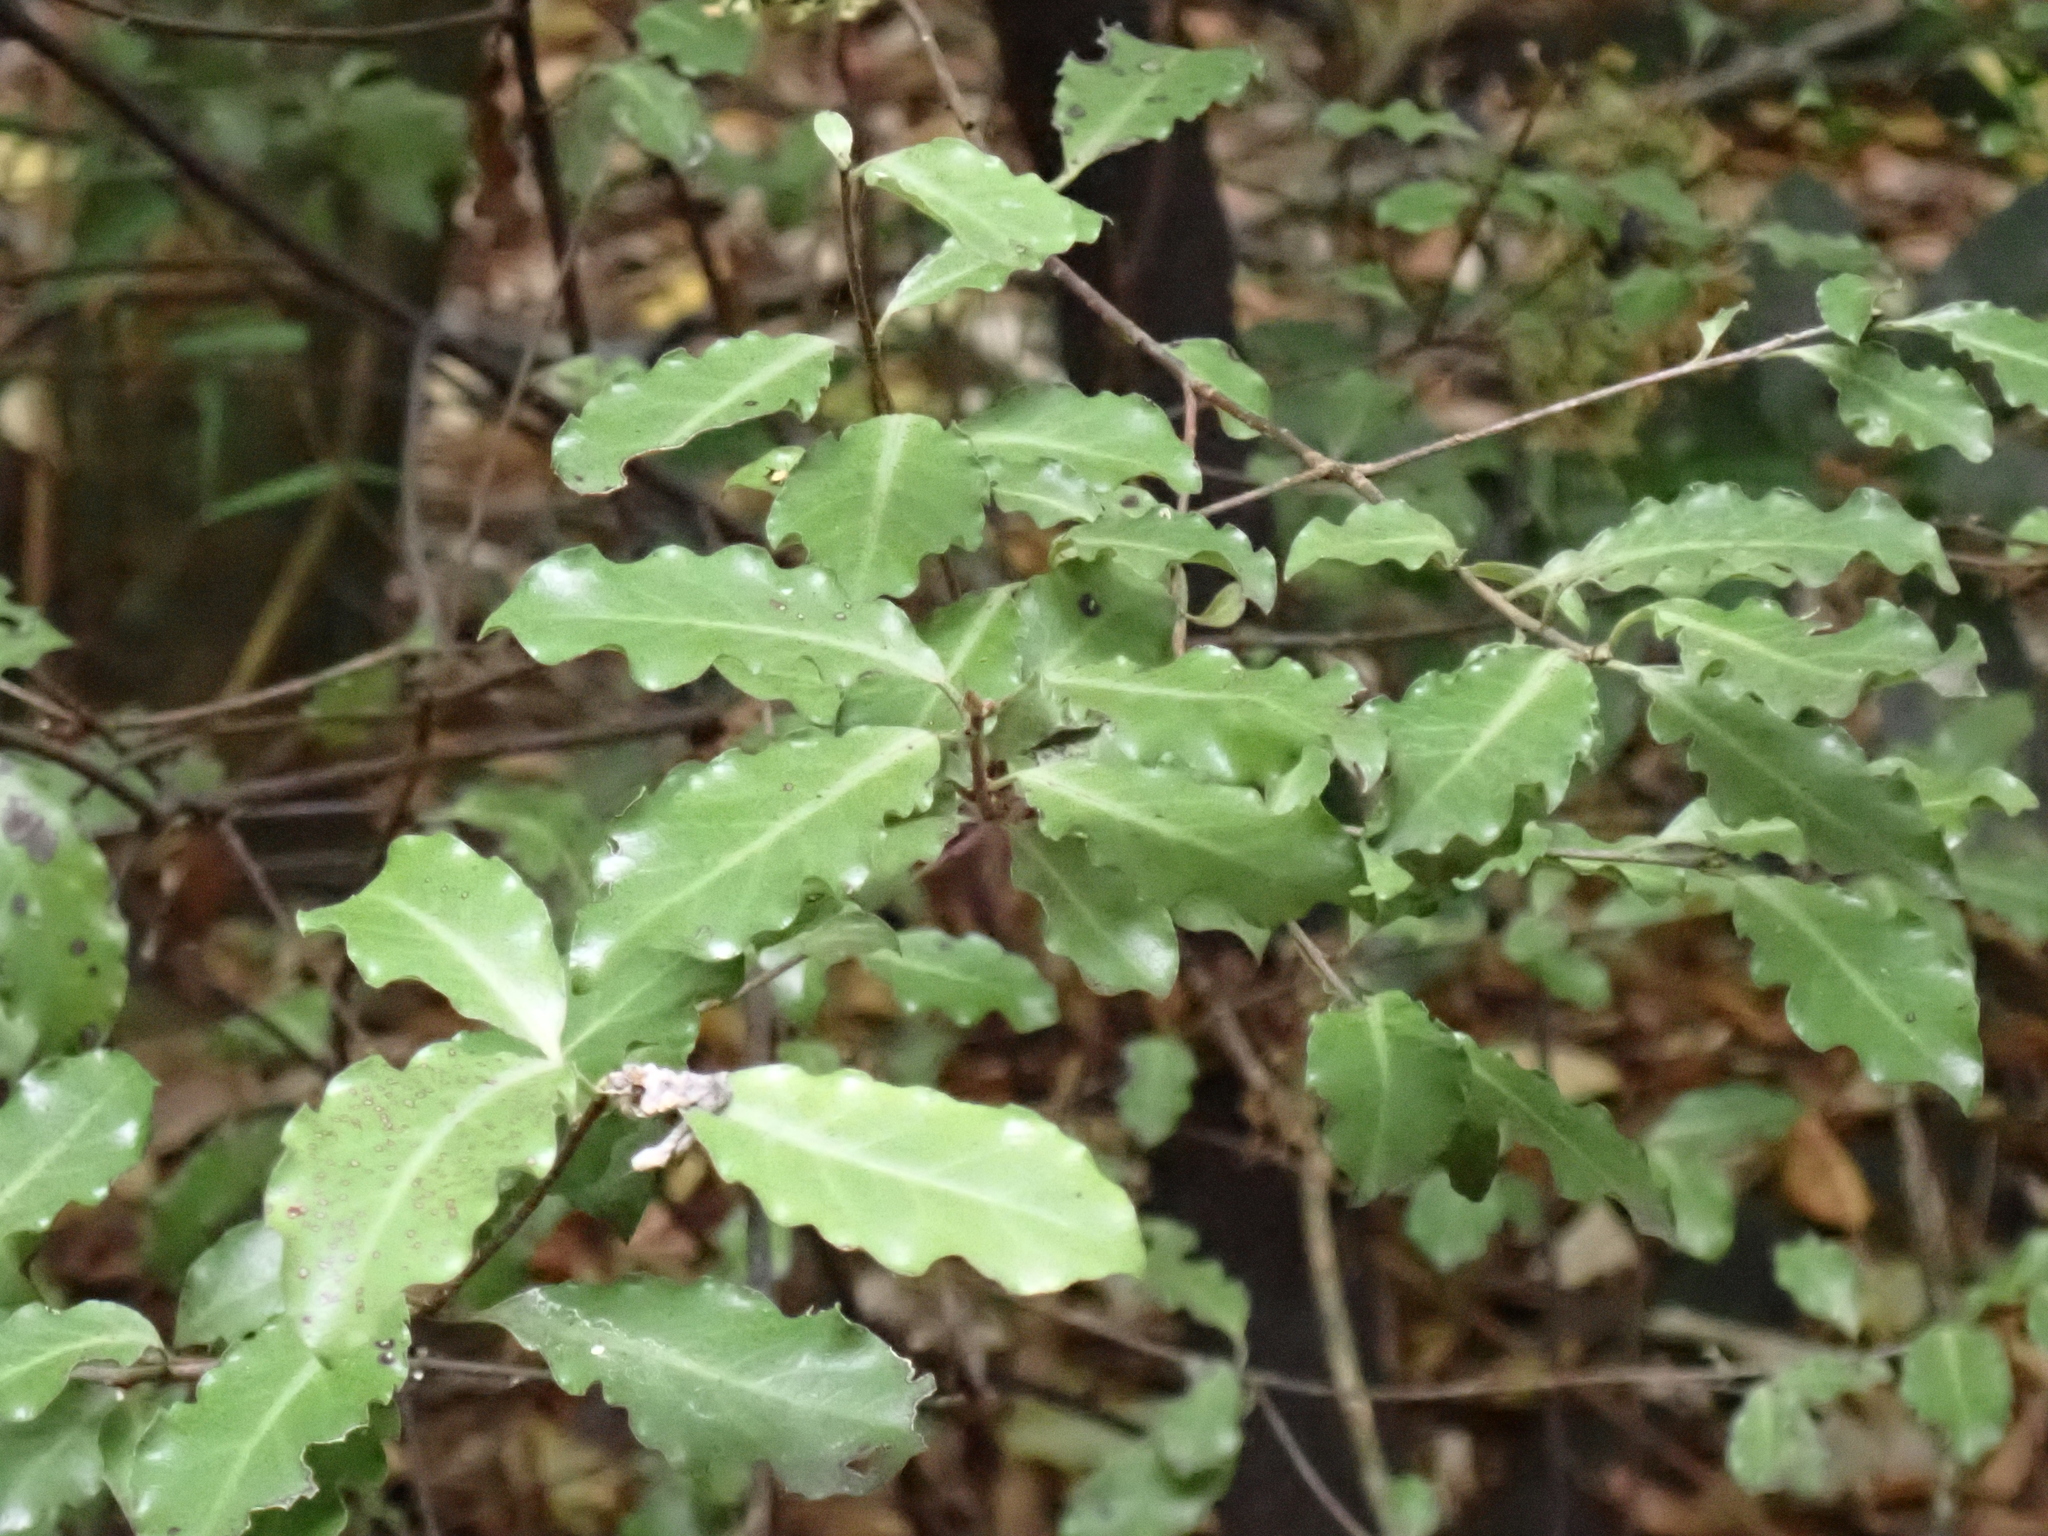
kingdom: Plantae
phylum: Tracheophyta
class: Magnoliopsida
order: Apiales
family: Pittosporaceae
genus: Pittosporum
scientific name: Pittosporum tenuifolium
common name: Kohuhu
